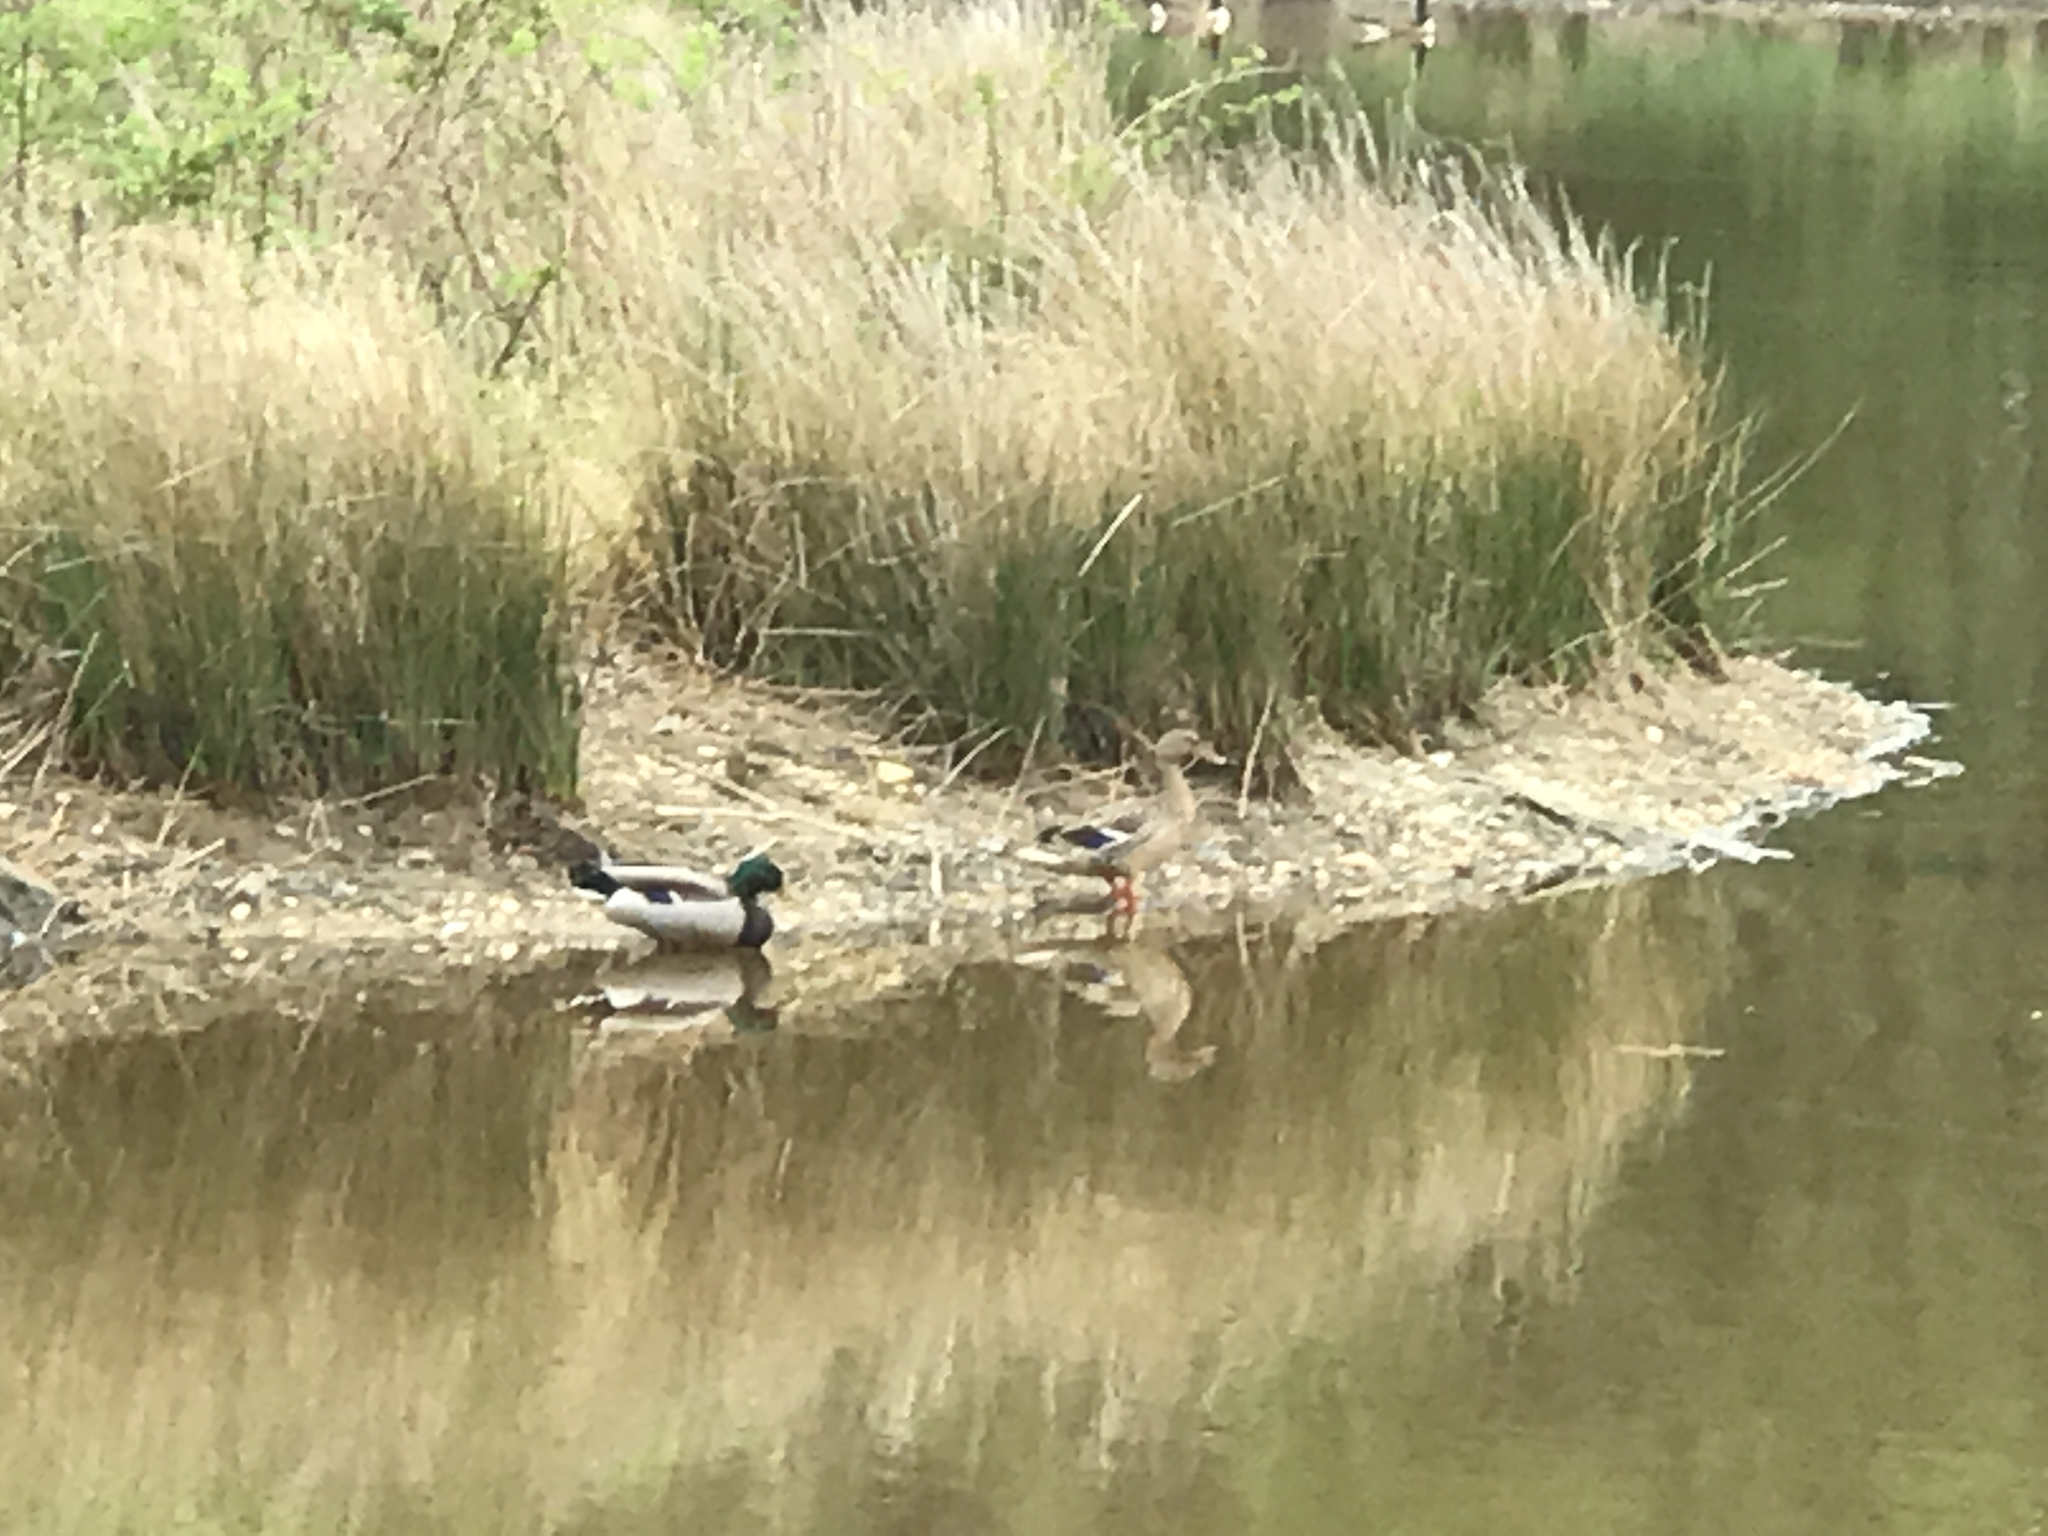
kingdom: Animalia
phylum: Chordata
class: Aves
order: Anseriformes
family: Anatidae
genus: Anas
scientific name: Anas platyrhynchos
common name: Mallard
